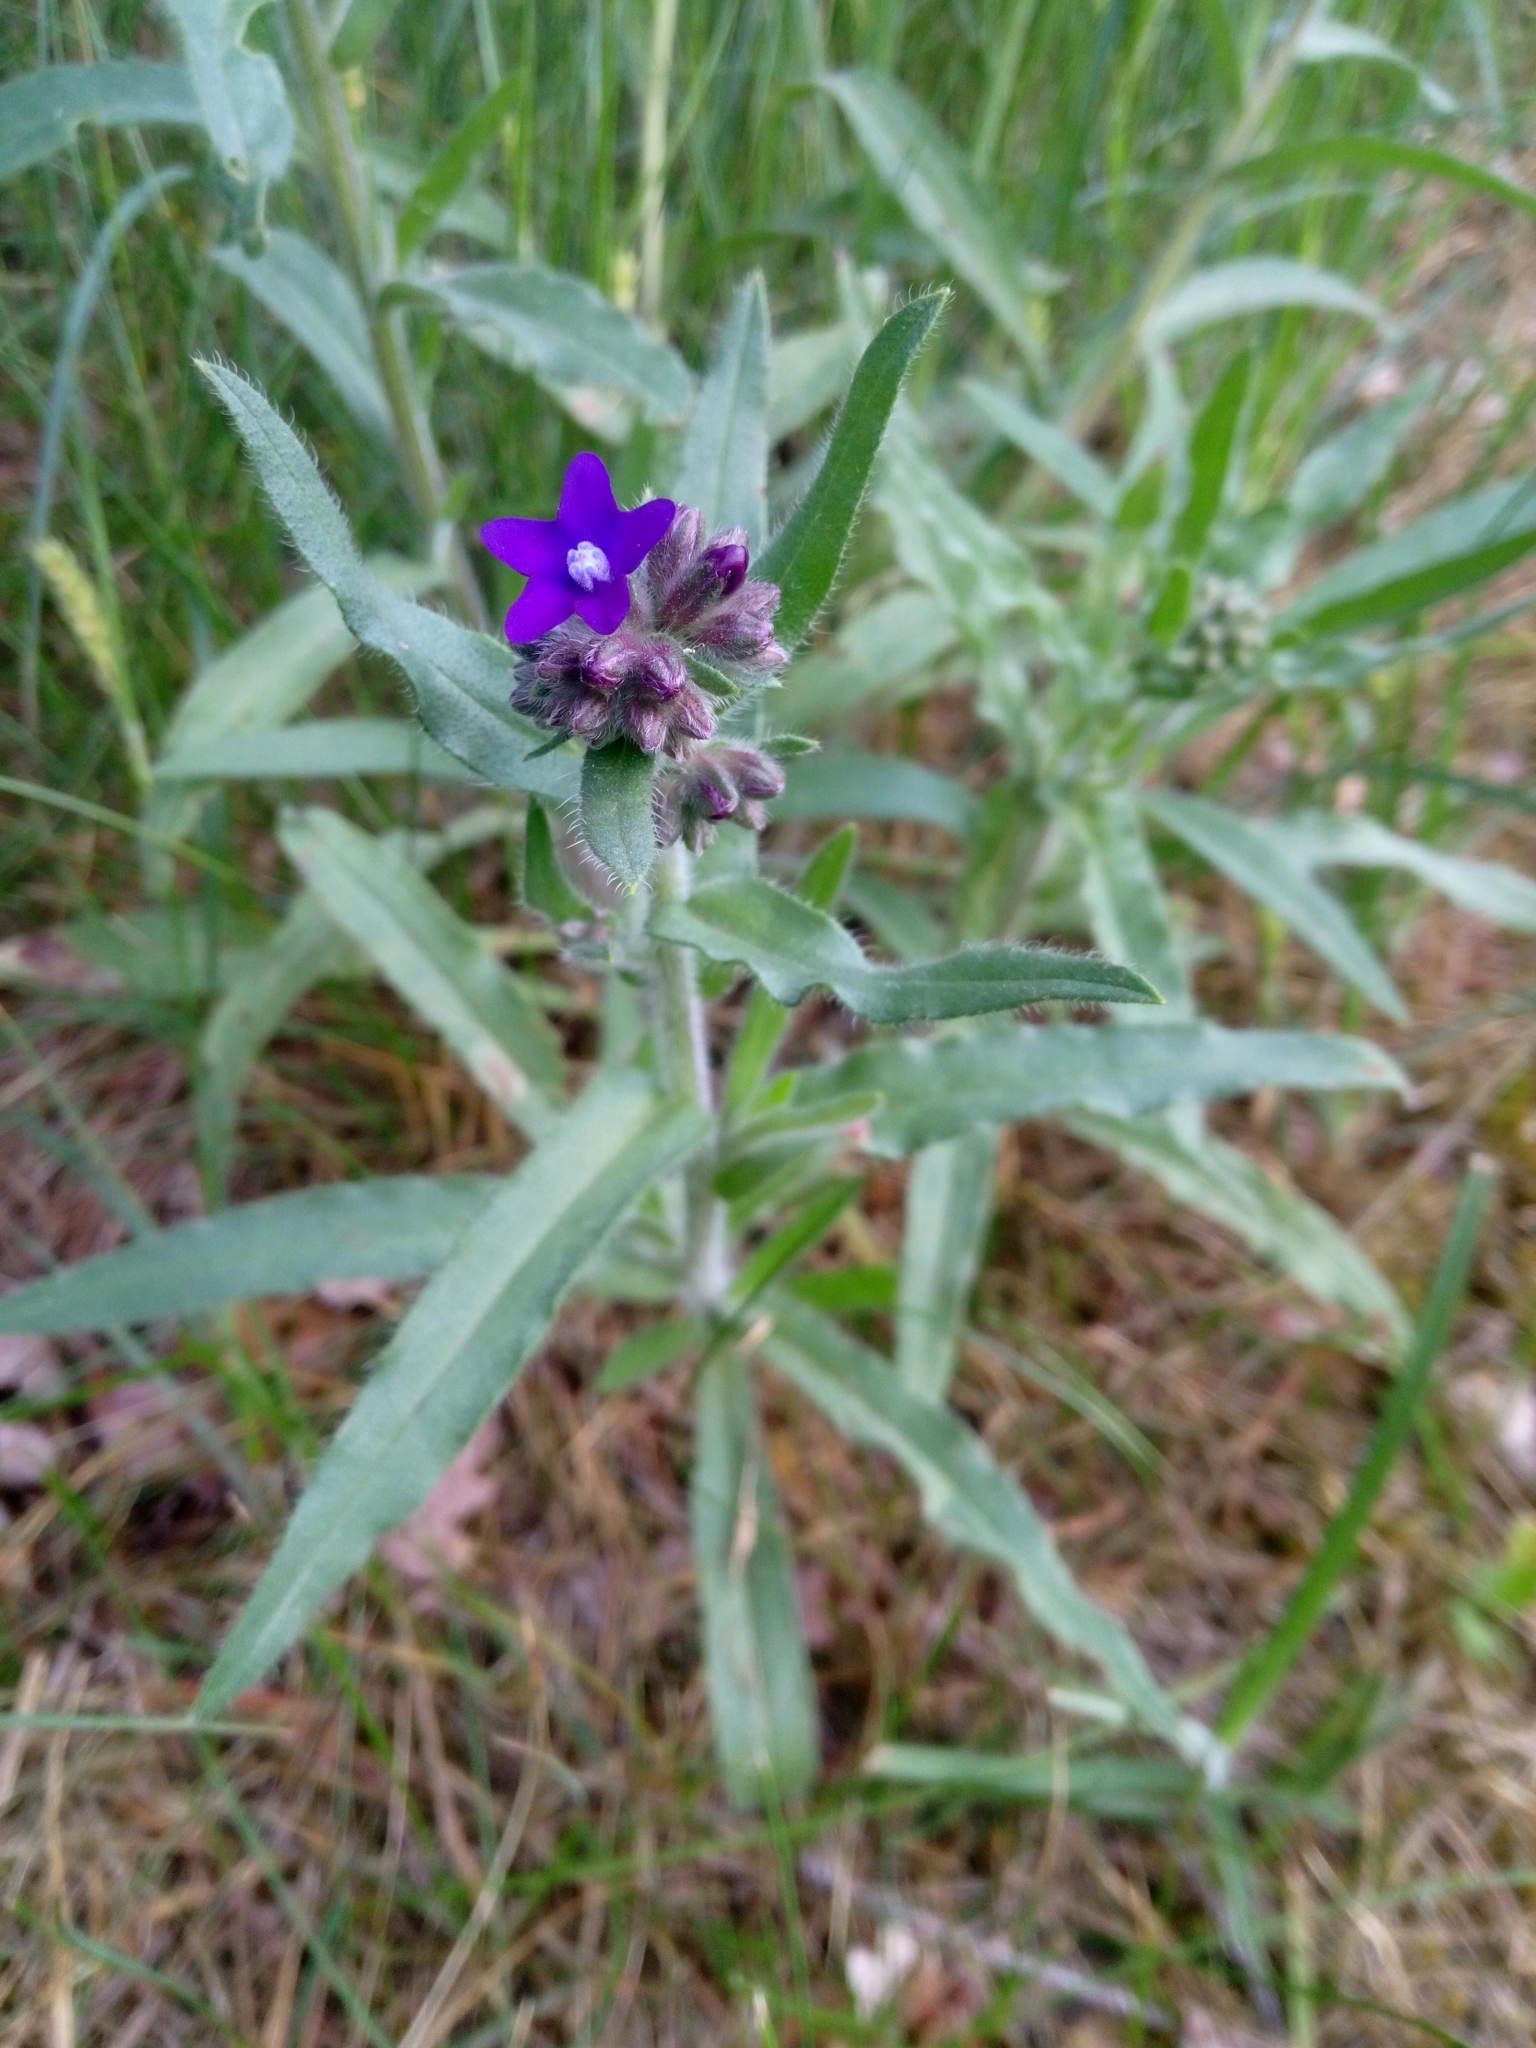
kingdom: Plantae
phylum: Tracheophyta
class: Magnoliopsida
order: Boraginales
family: Boraginaceae
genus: Anchusa
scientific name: Anchusa officinalis
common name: Alkanet
